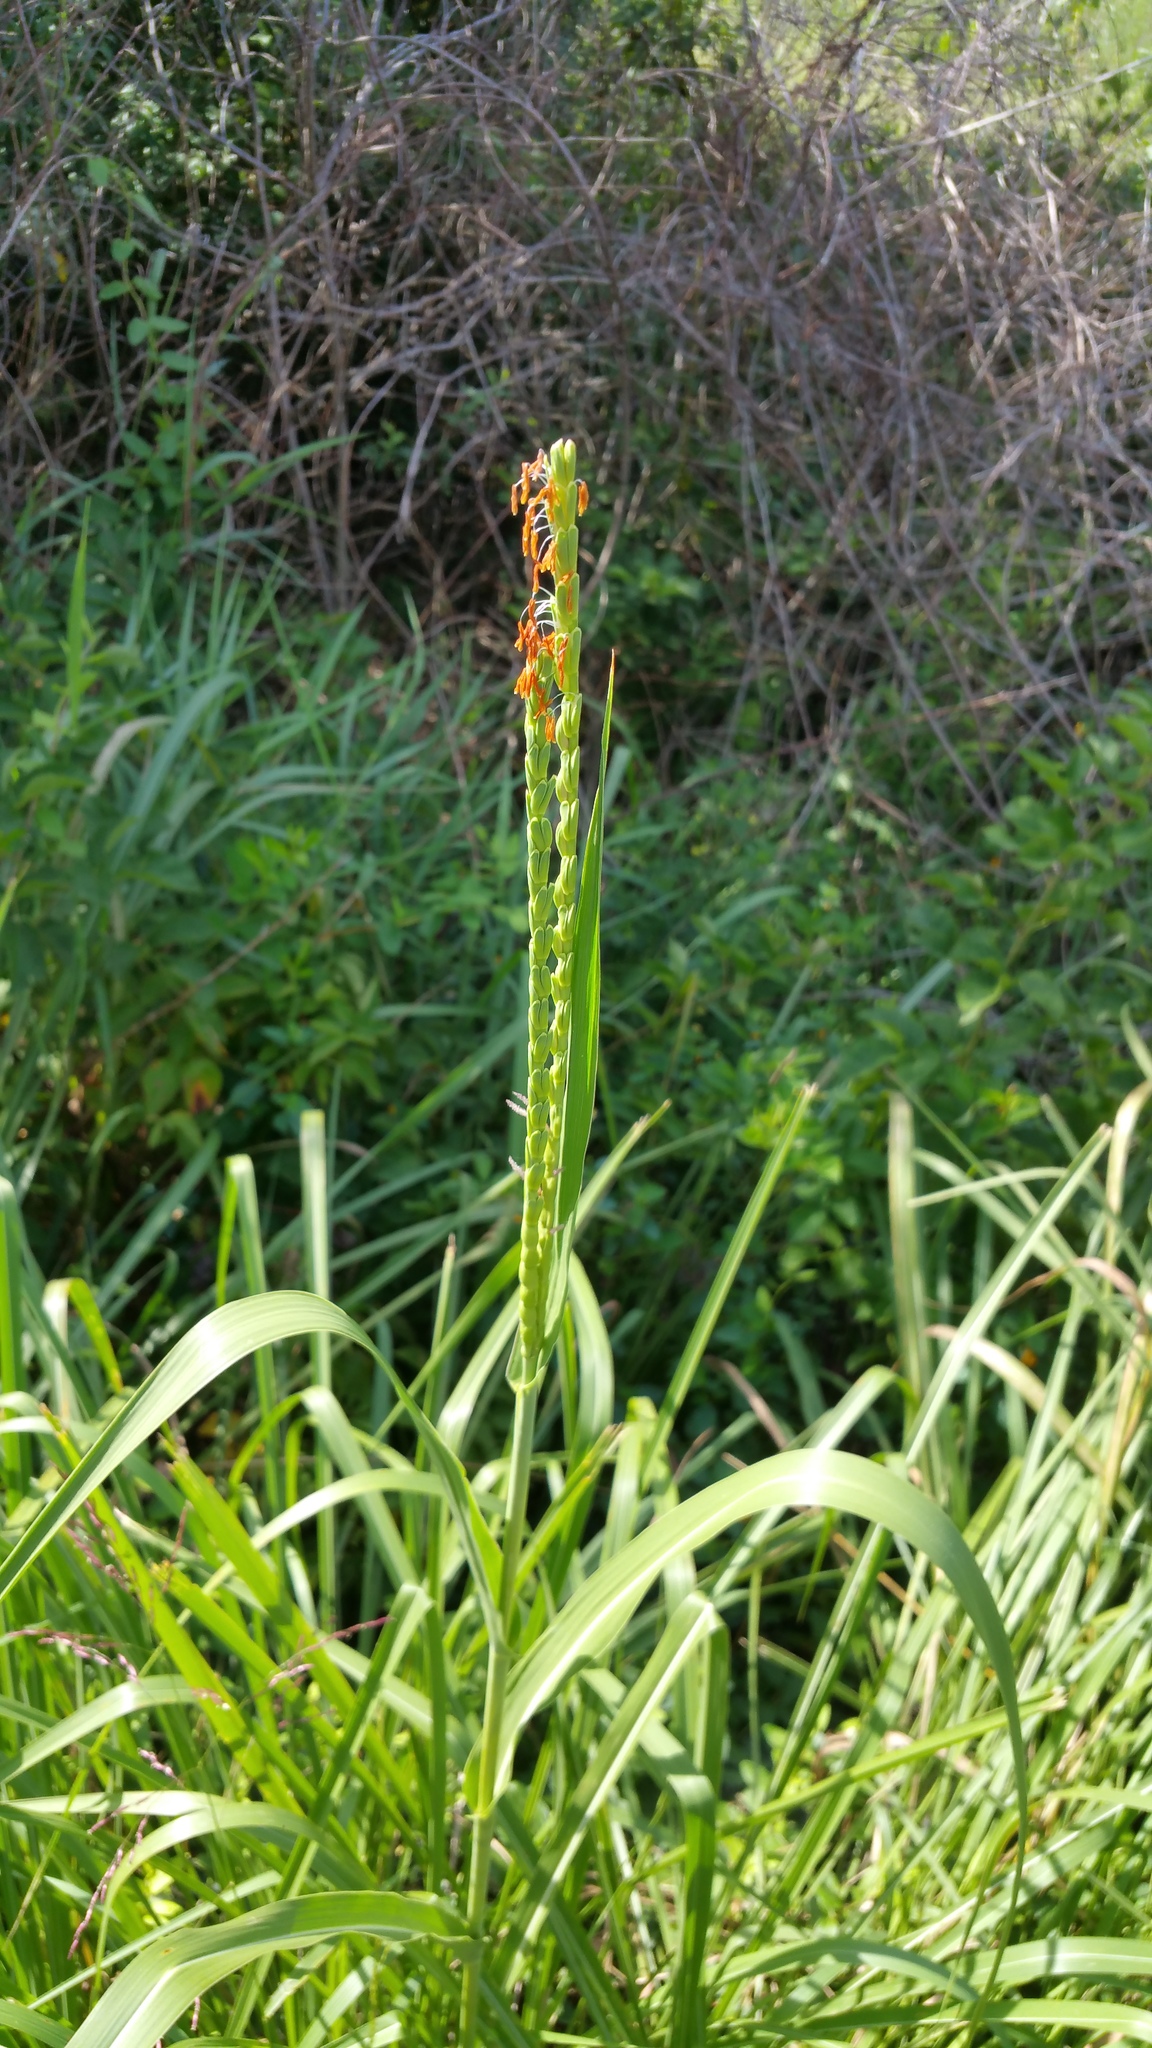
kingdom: Plantae
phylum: Tracheophyta
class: Liliopsida
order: Poales
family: Poaceae
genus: Tripsacum
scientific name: Tripsacum dactyloides
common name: Buffalo-grass
